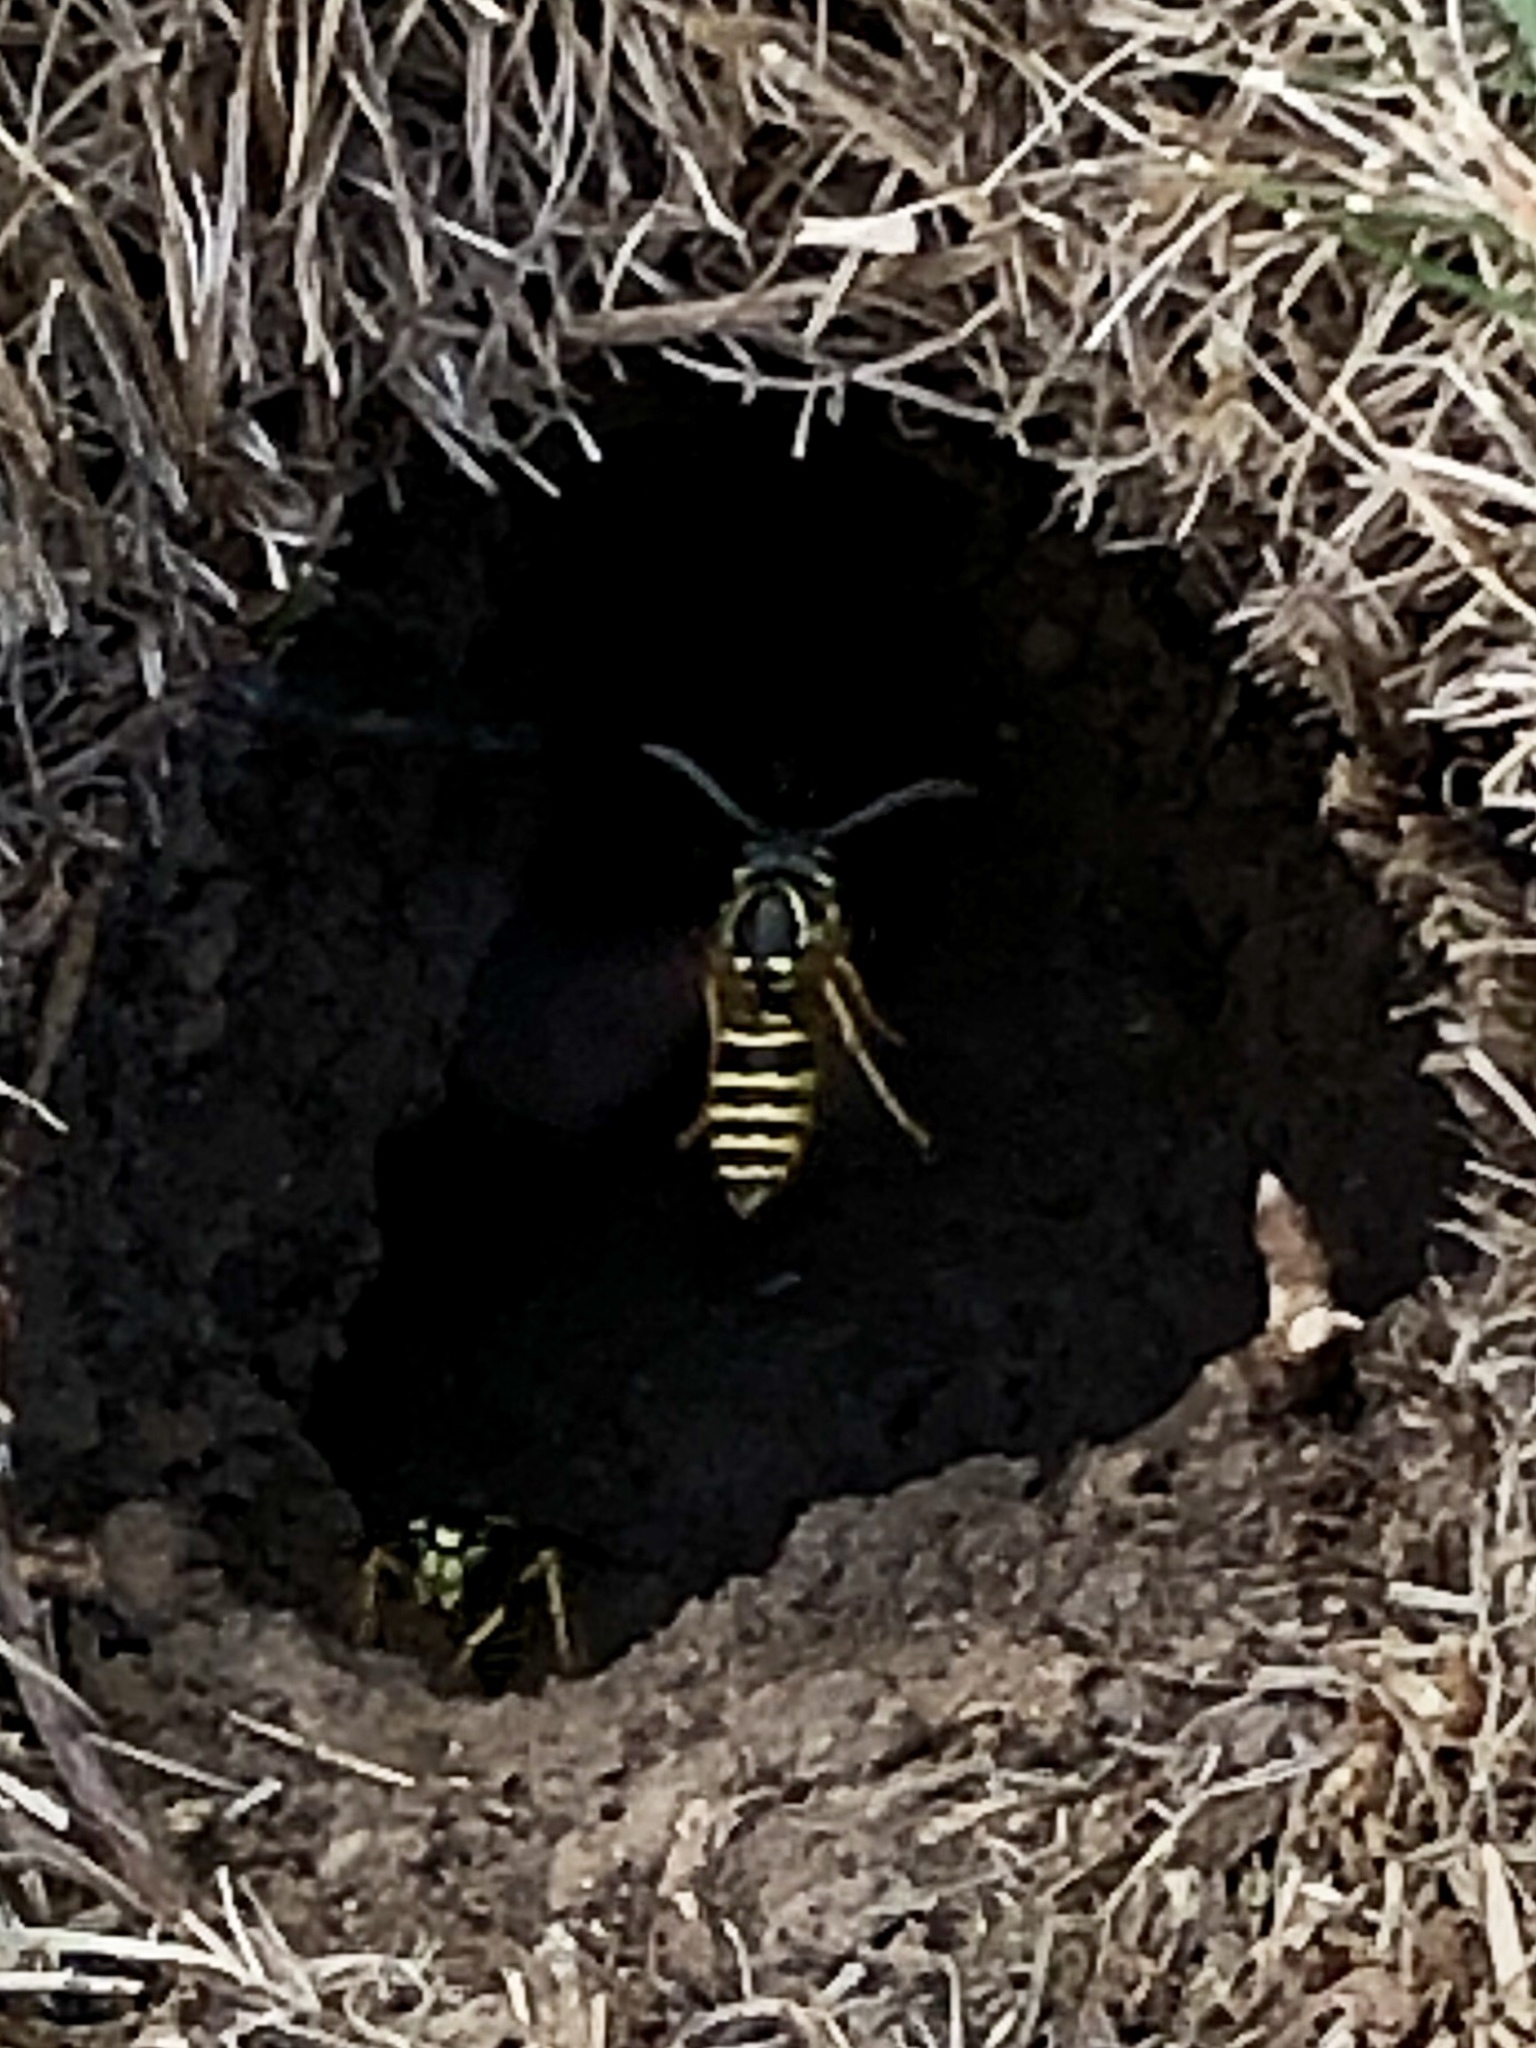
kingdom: Animalia
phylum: Arthropoda
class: Insecta
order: Hymenoptera
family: Vespidae
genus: Vespula
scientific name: Vespula maculifrons
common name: Eastern yellowjacket
